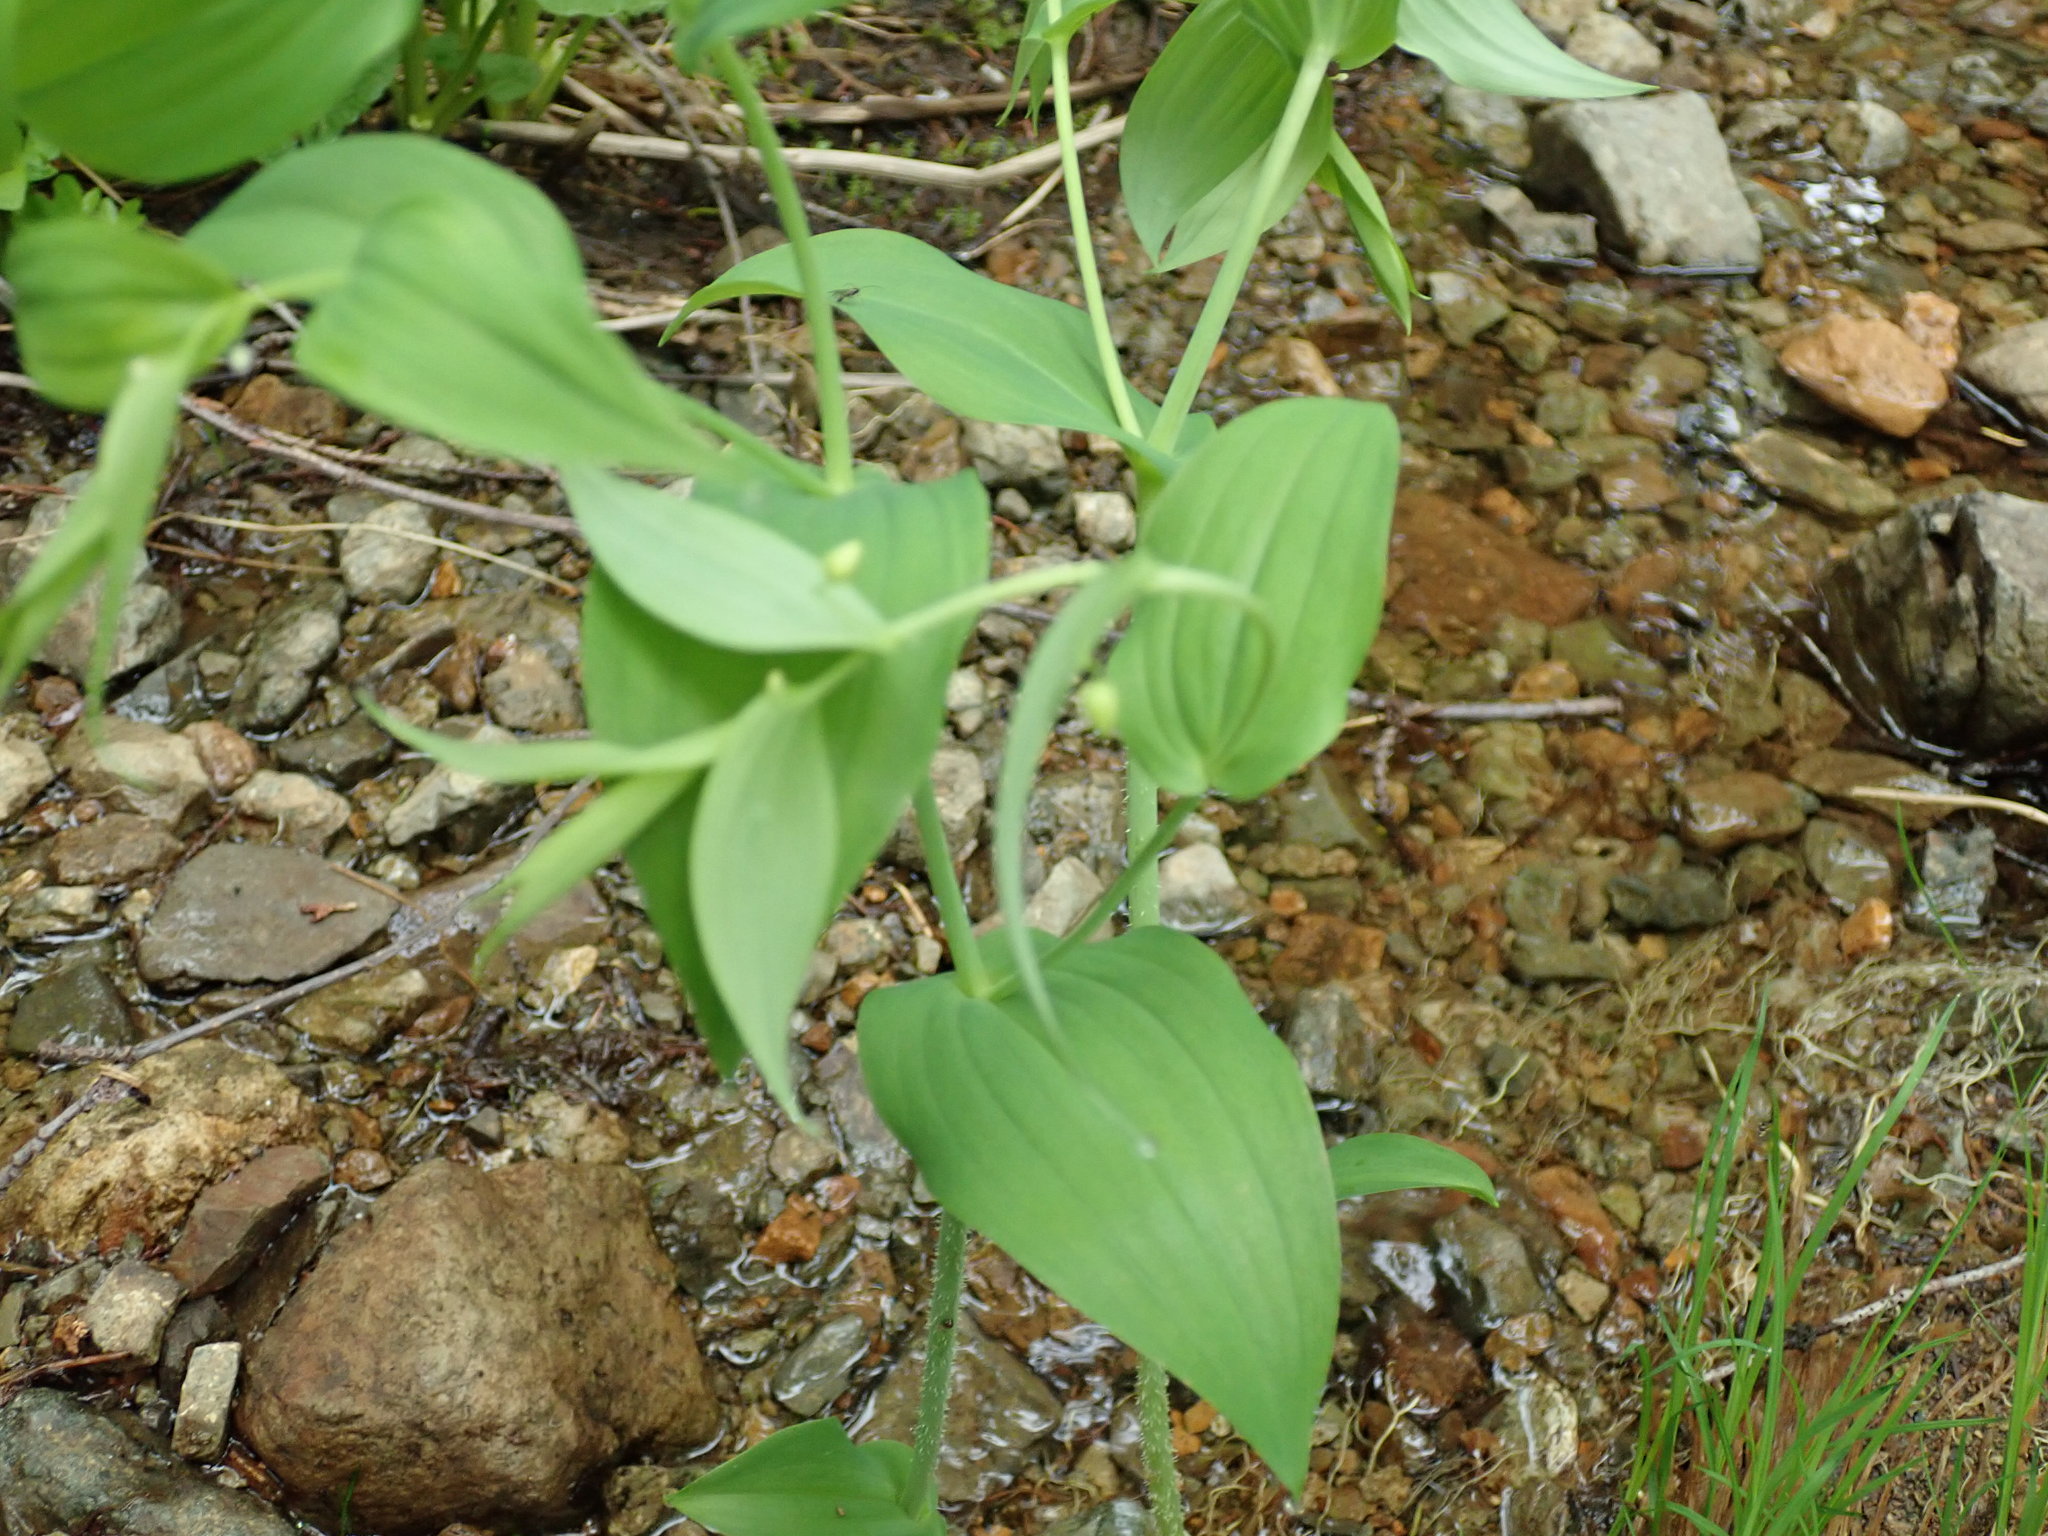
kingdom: Plantae
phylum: Tracheophyta
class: Liliopsida
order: Liliales
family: Liliaceae
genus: Streptopus
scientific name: Streptopus amplexifolius
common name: Clasp twisted stalk
